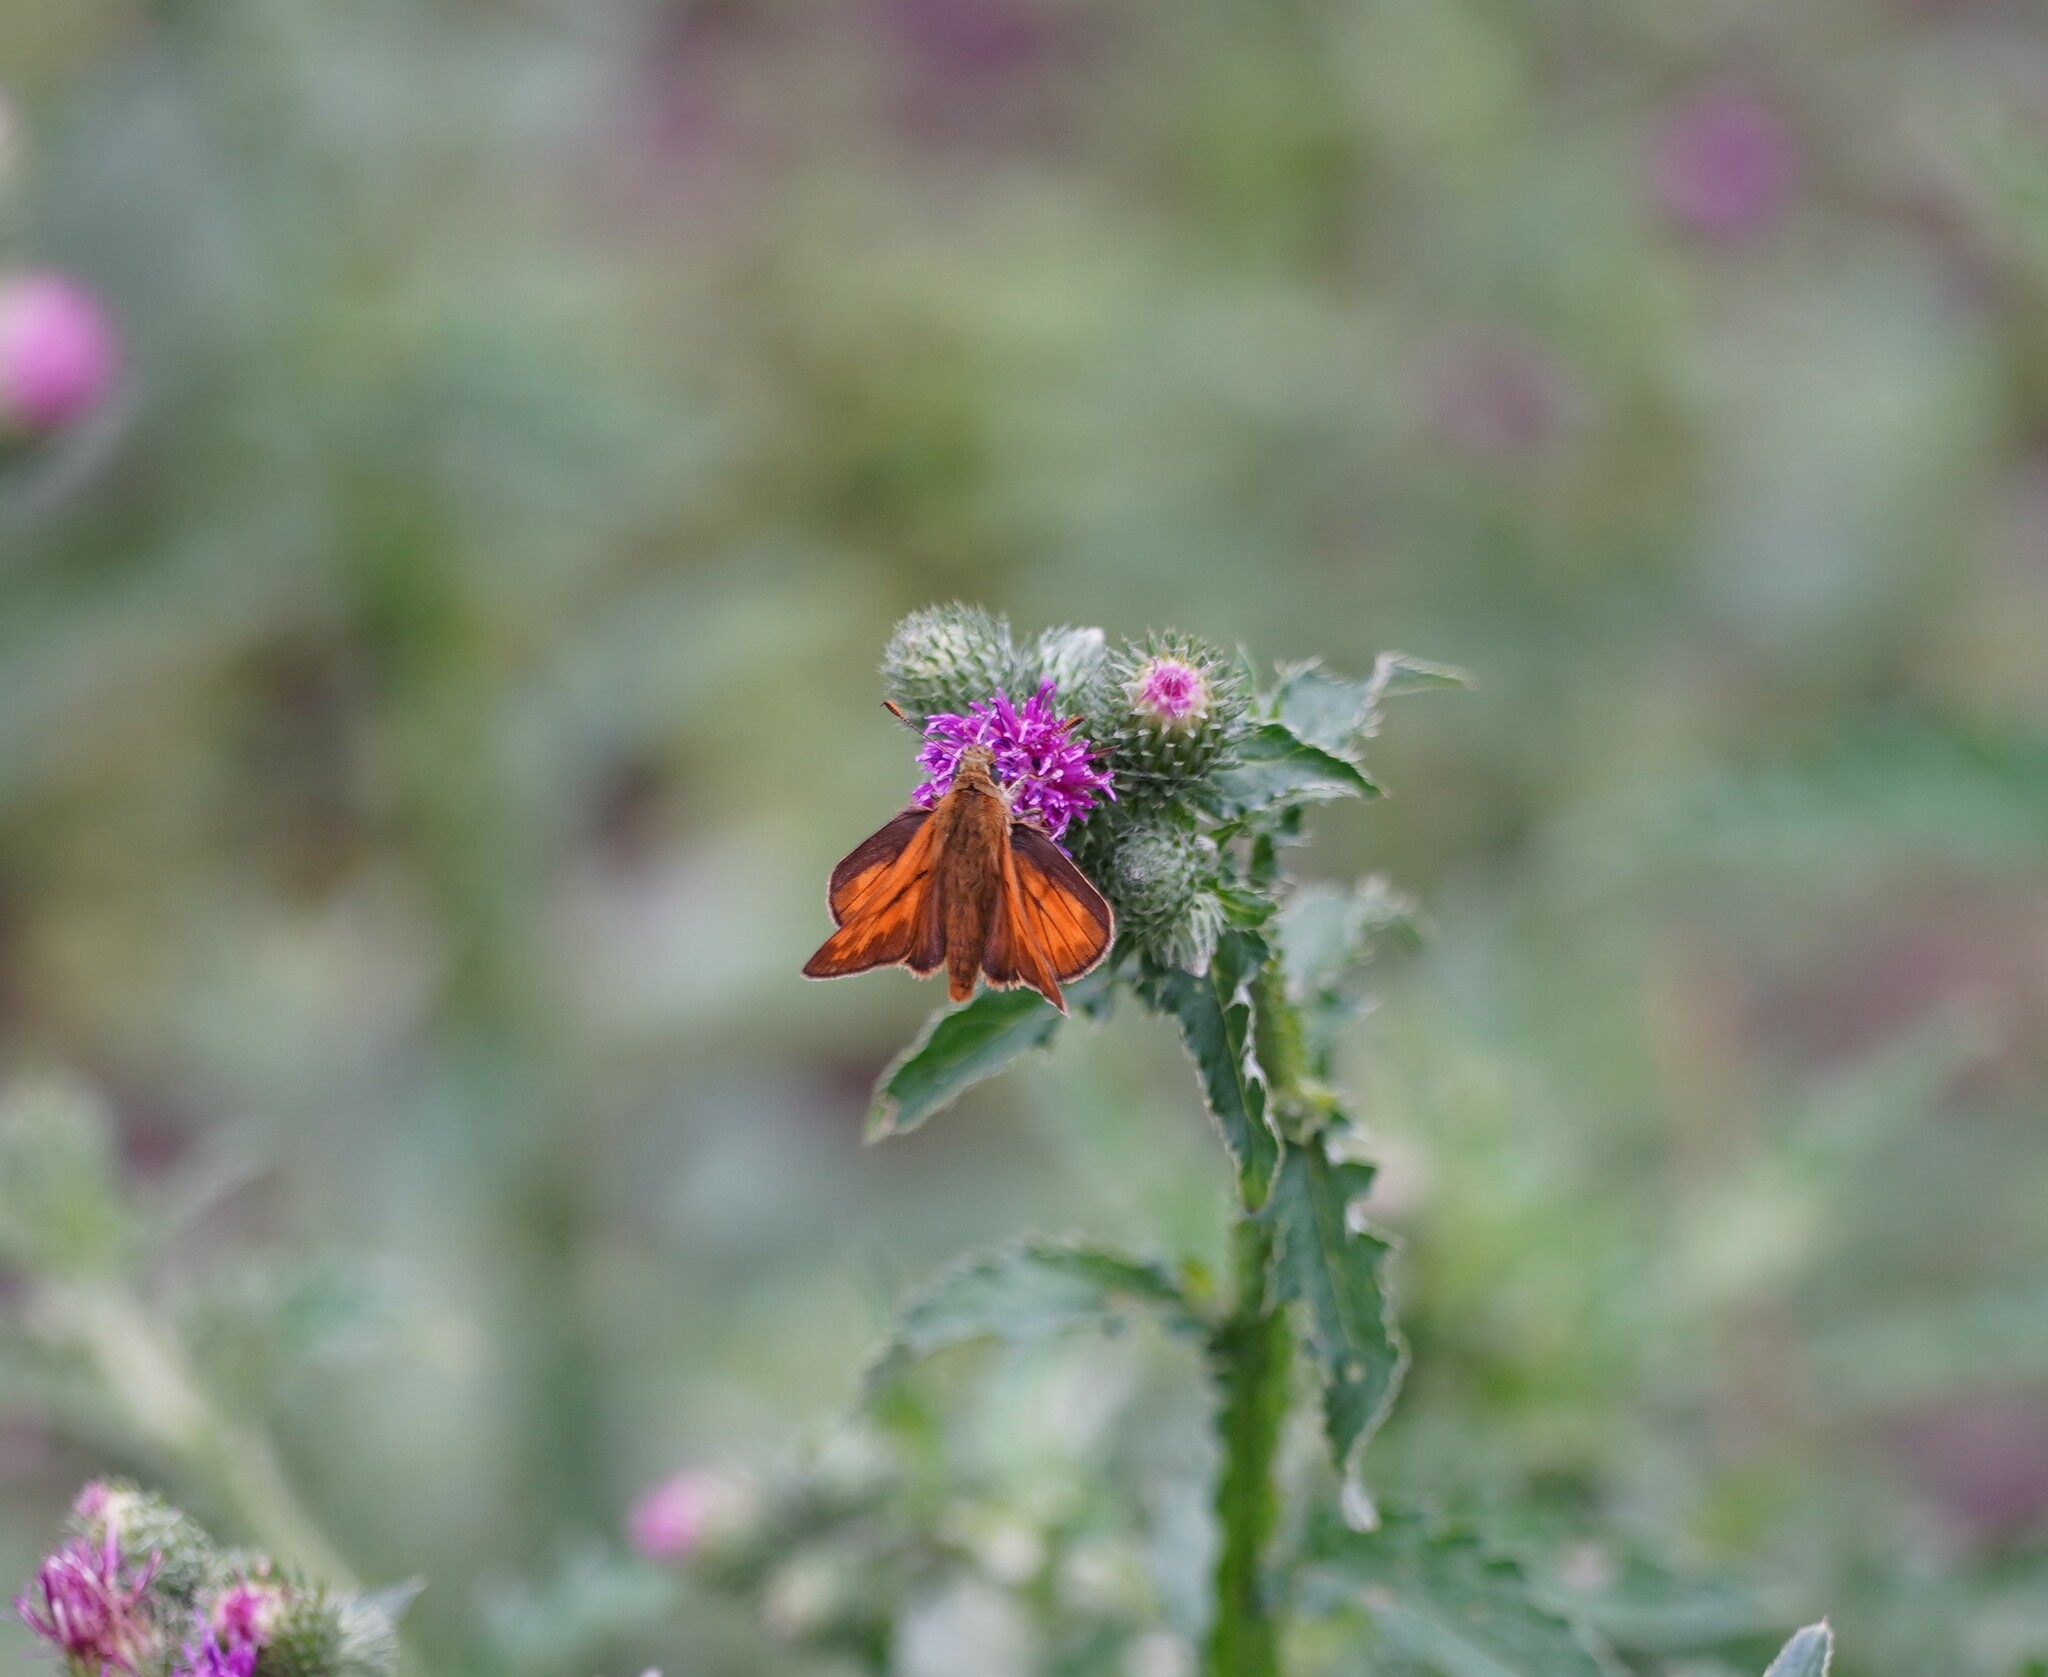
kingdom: Animalia
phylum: Arthropoda
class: Insecta
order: Lepidoptera
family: Hesperiidae
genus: Ochlodes
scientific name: Ochlodes venata
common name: Large skipper
